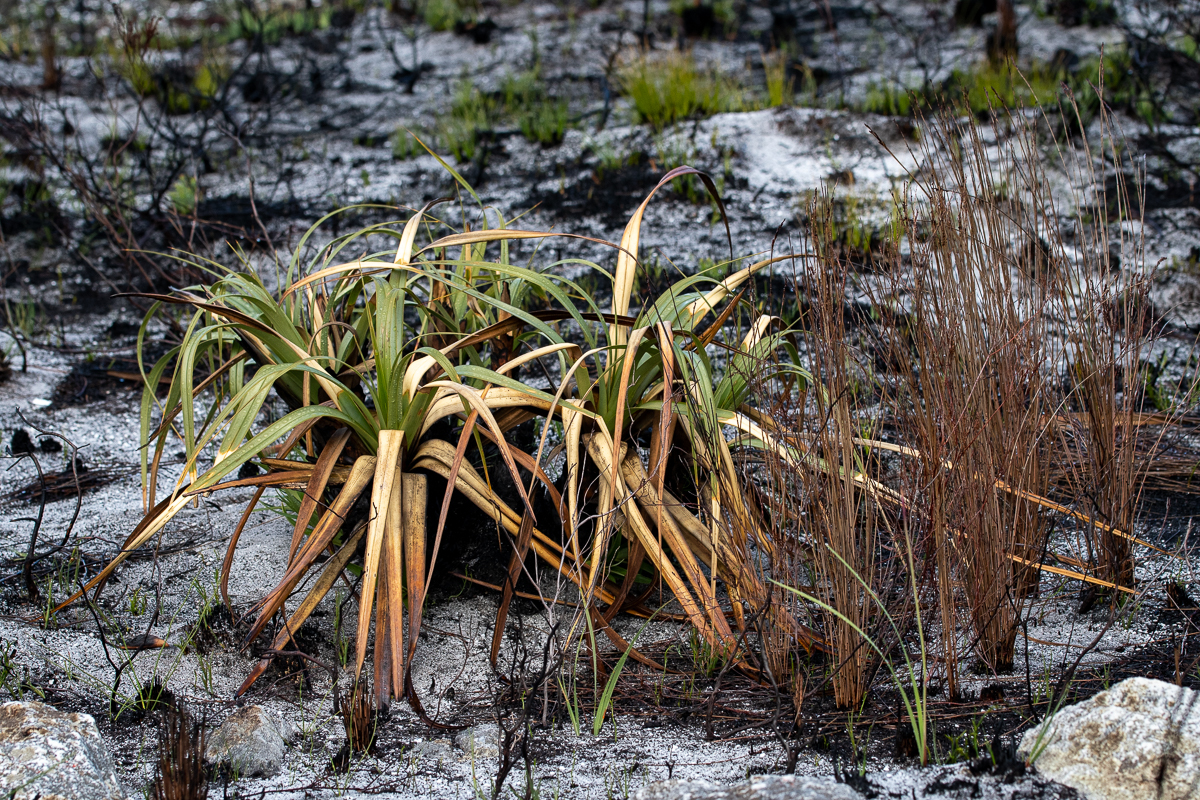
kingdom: Plantae
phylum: Tracheophyta
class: Liliopsida
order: Poales
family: Cyperaceae
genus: Tetraria
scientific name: Tetraria thermalis
